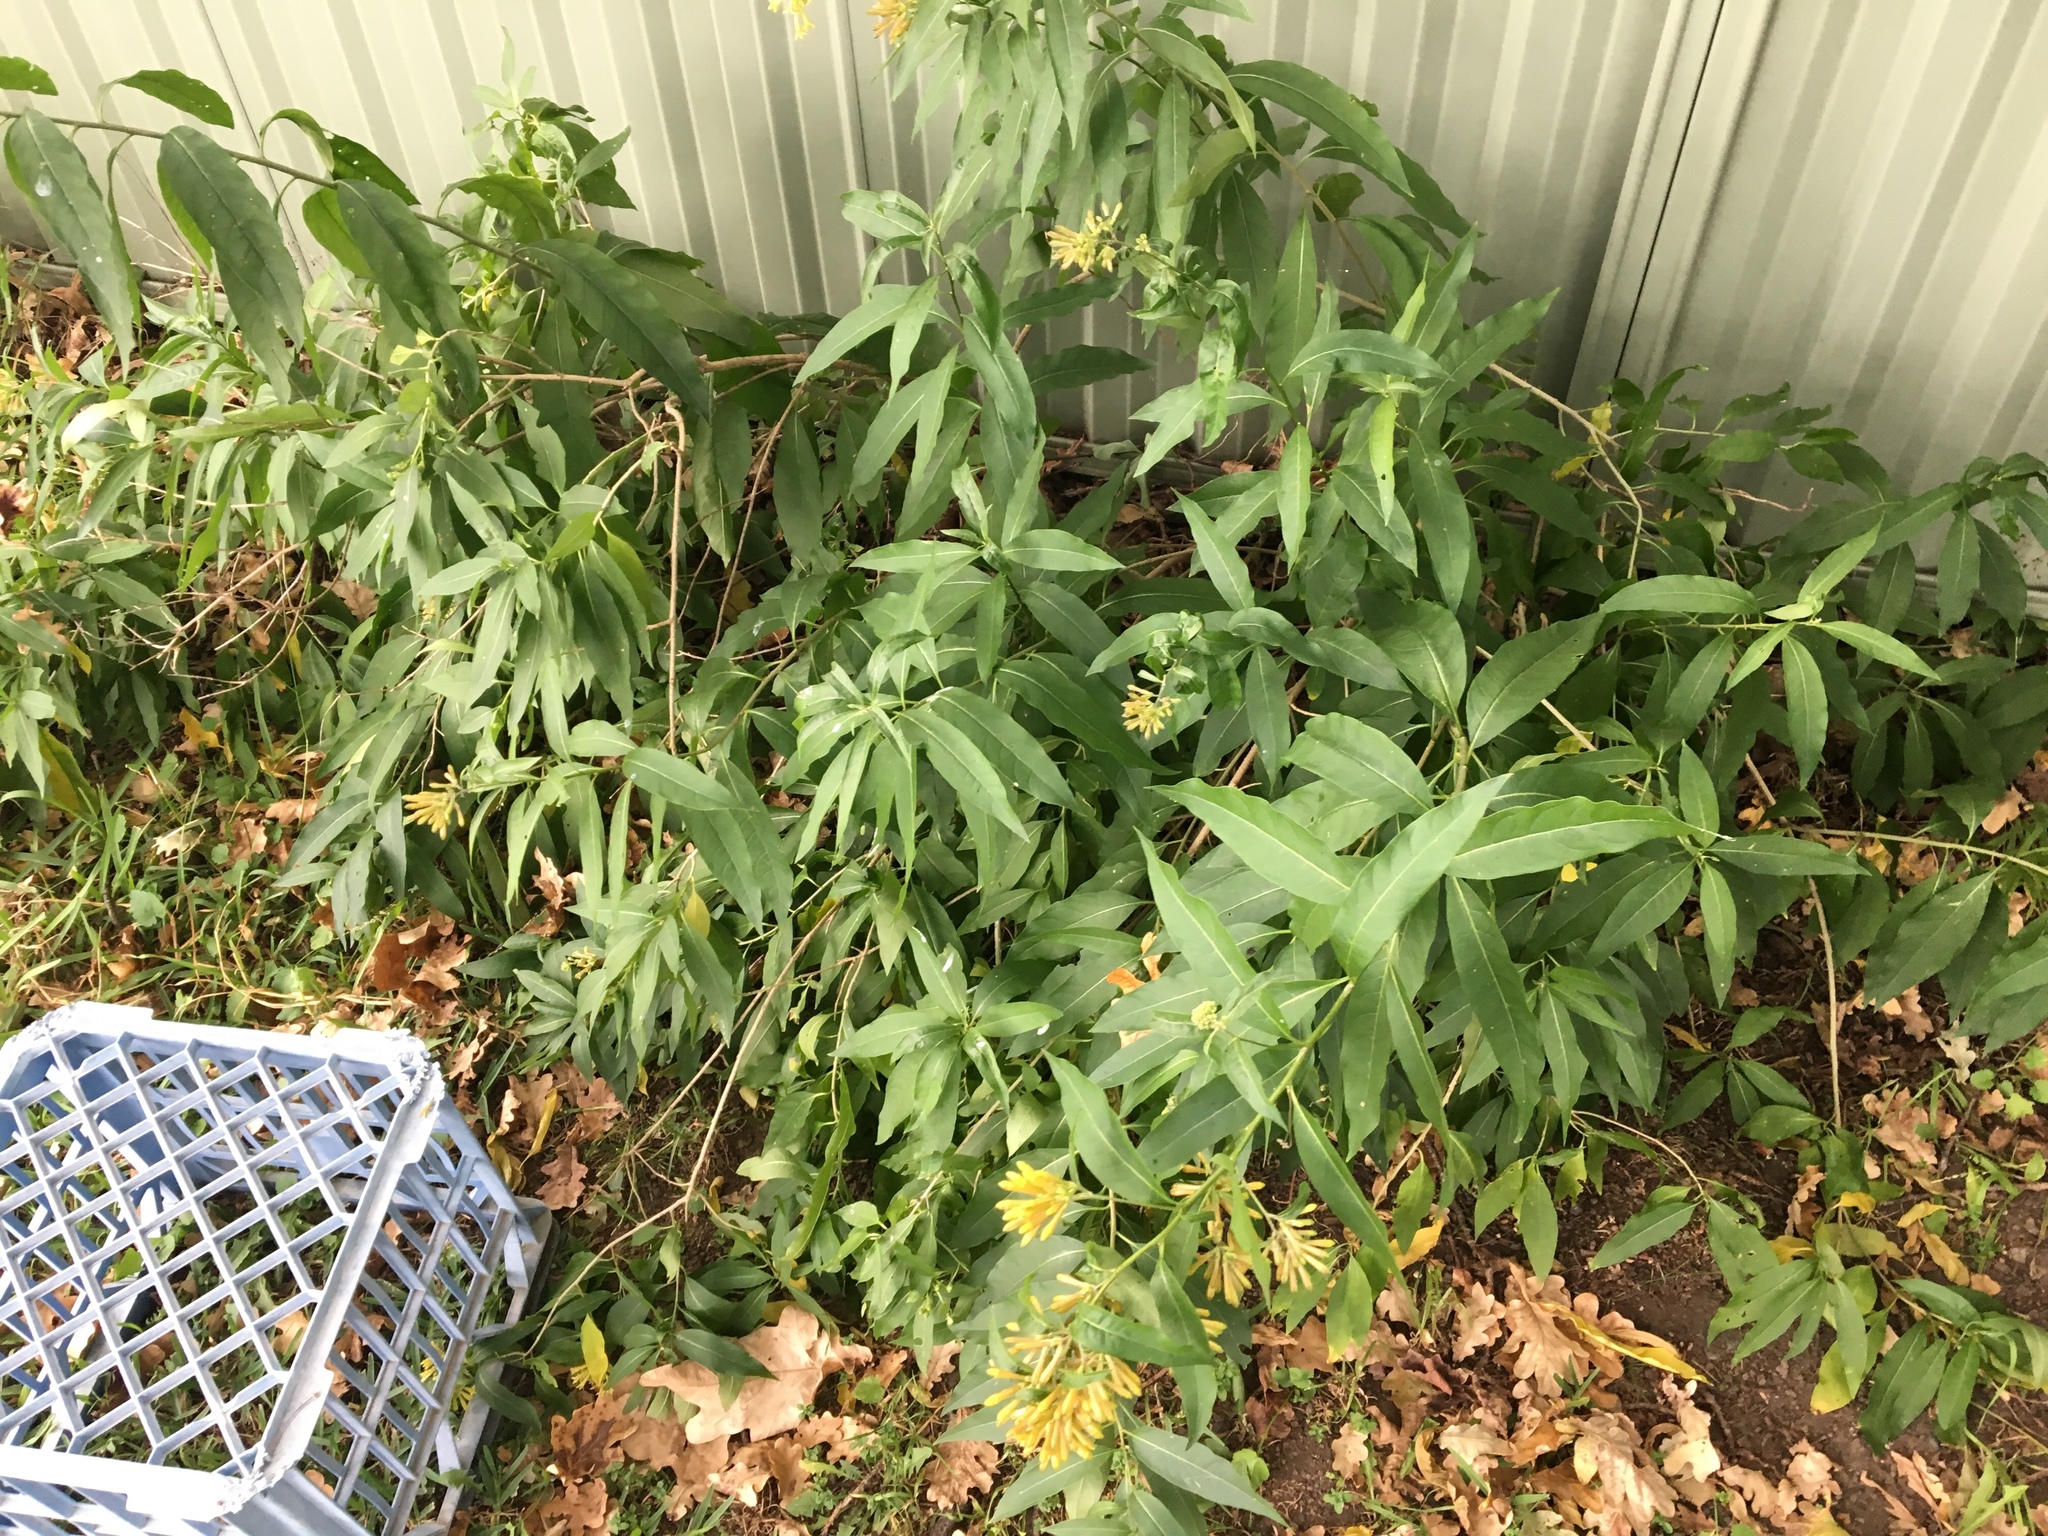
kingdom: Plantae
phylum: Tracheophyta
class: Magnoliopsida
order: Solanales
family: Solanaceae
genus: Cestrum
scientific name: Cestrum parqui
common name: Chilean cestrum
